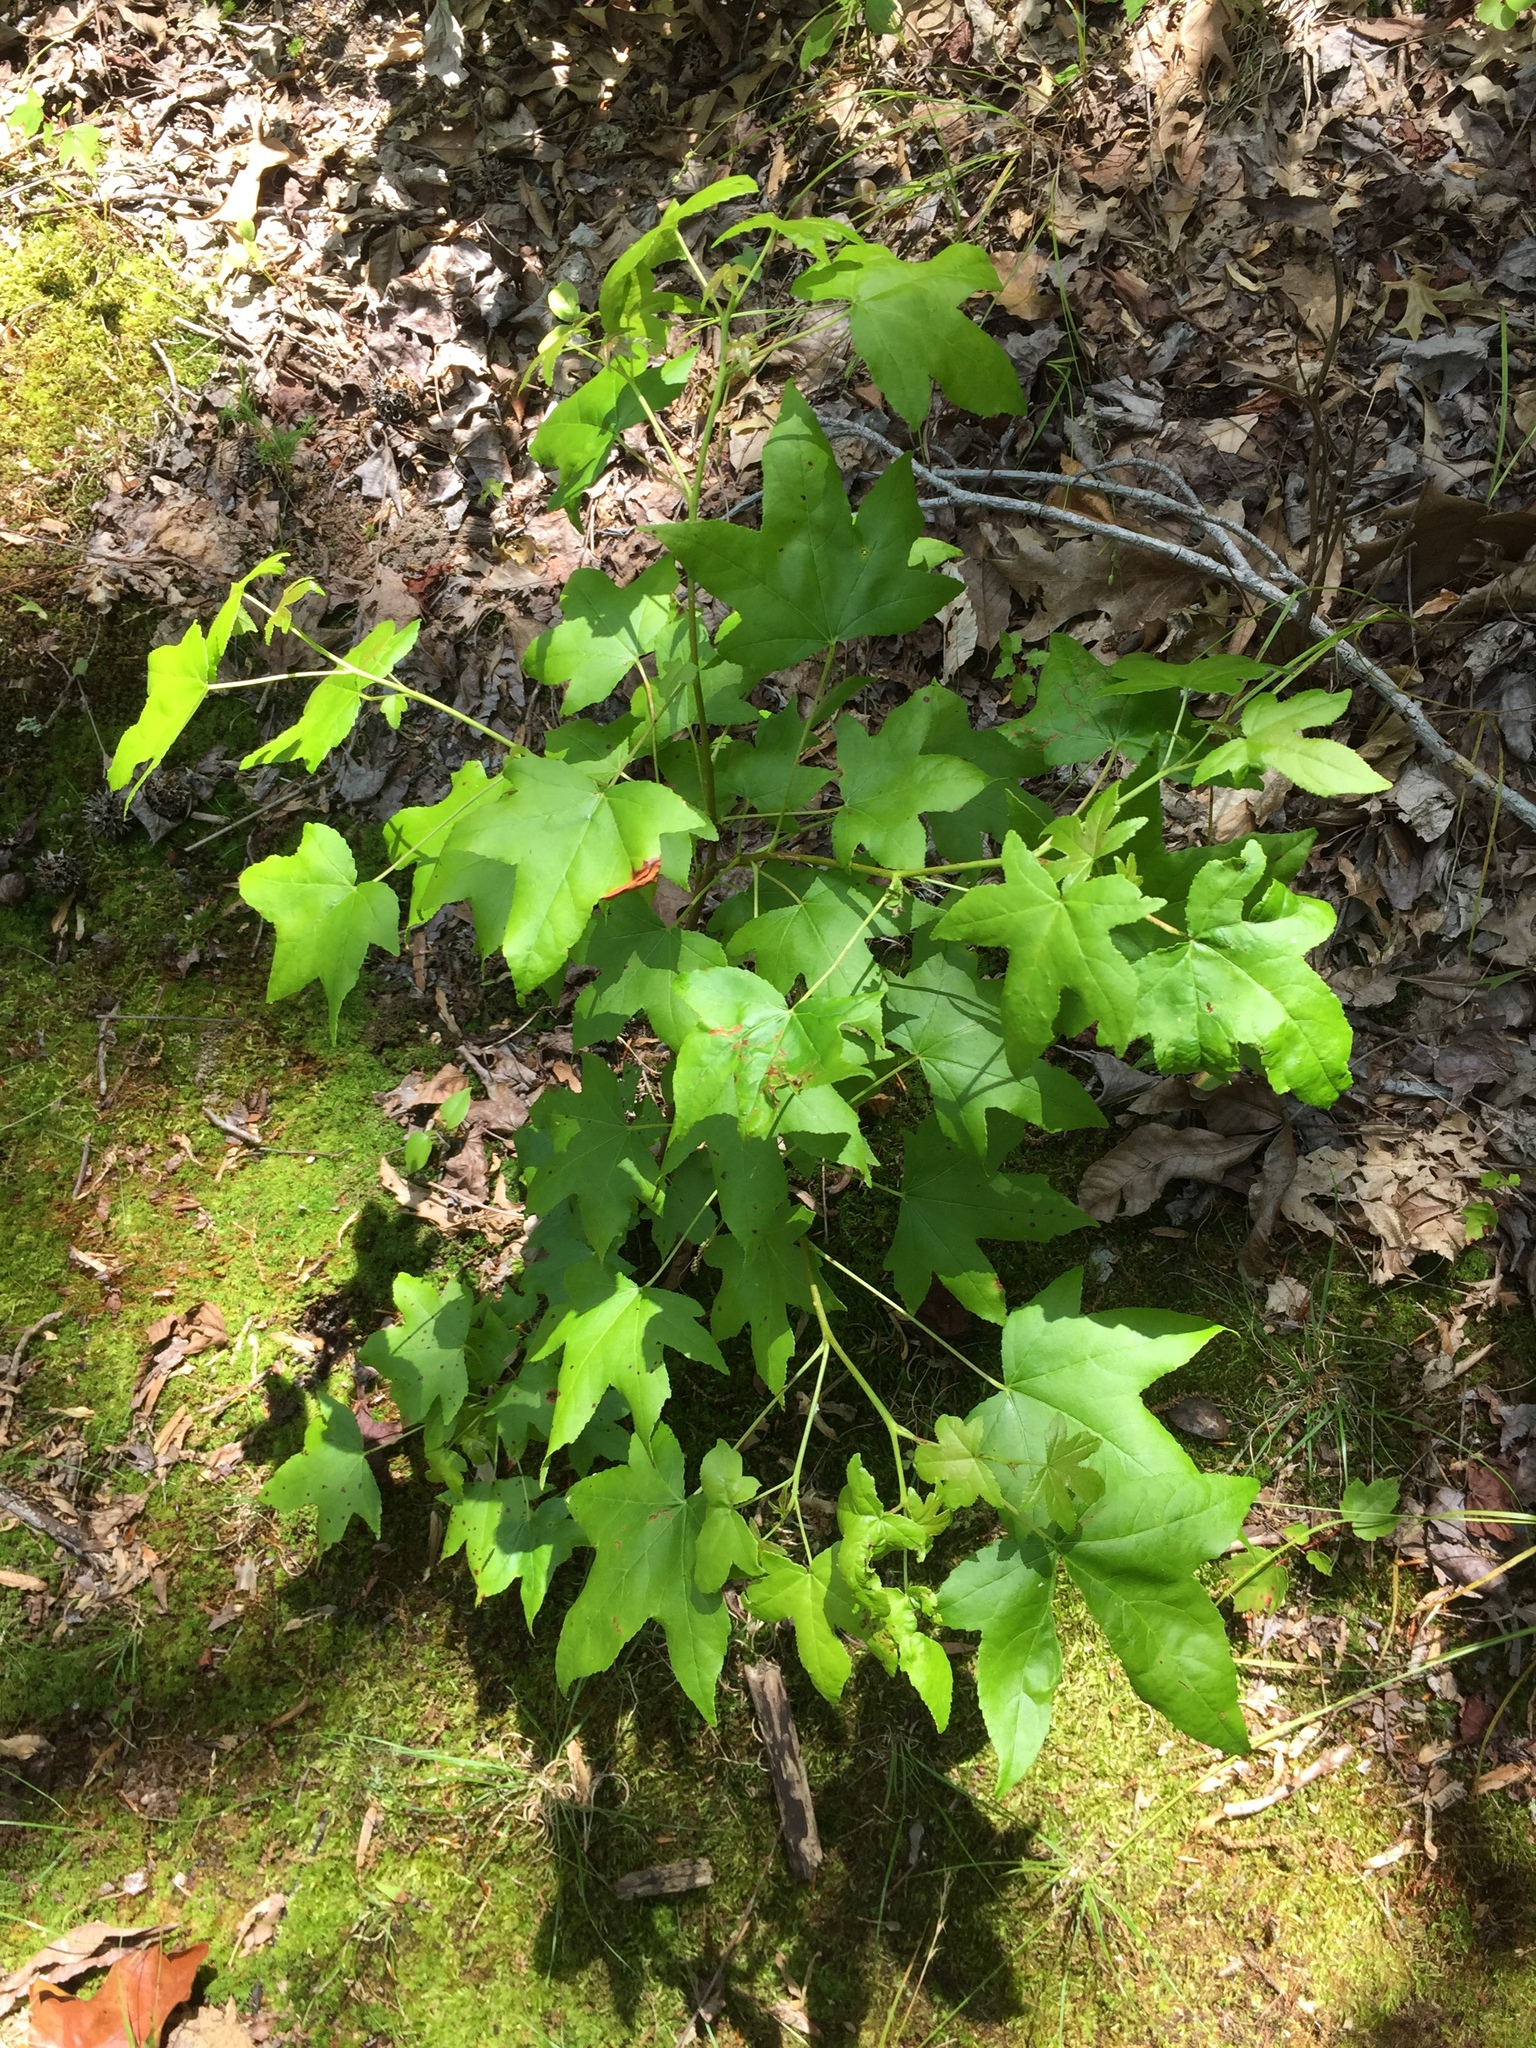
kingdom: Plantae
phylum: Tracheophyta
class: Magnoliopsida
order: Saxifragales
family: Altingiaceae
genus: Liquidambar
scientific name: Liquidambar styraciflua
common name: Sweet gum
